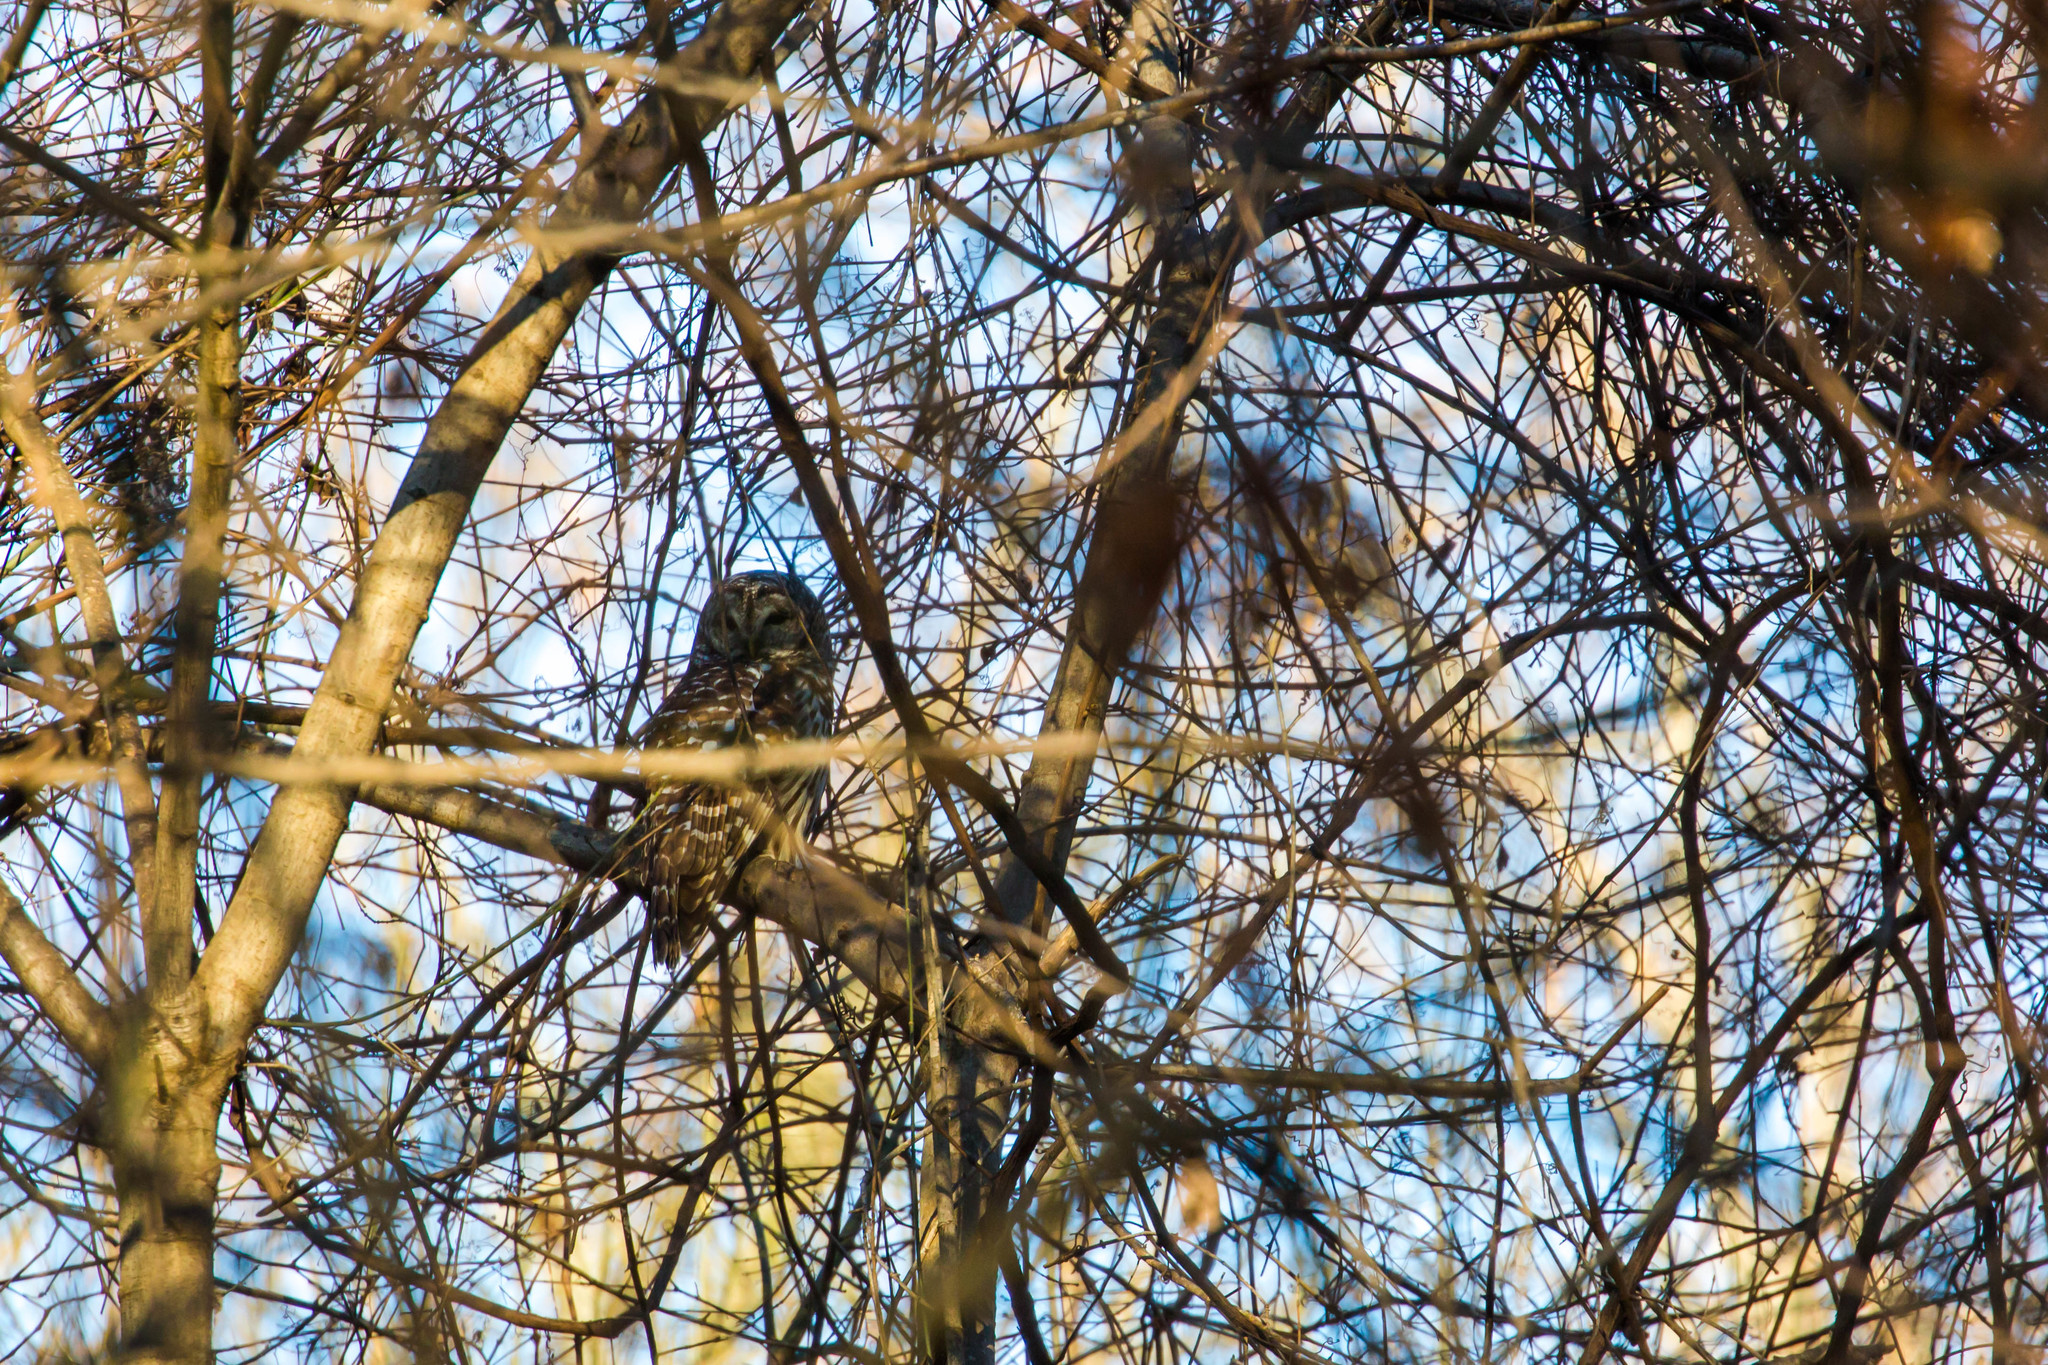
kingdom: Animalia
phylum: Chordata
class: Aves
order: Strigiformes
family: Strigidae
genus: Strix
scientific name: Strix varia
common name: Barred owl
